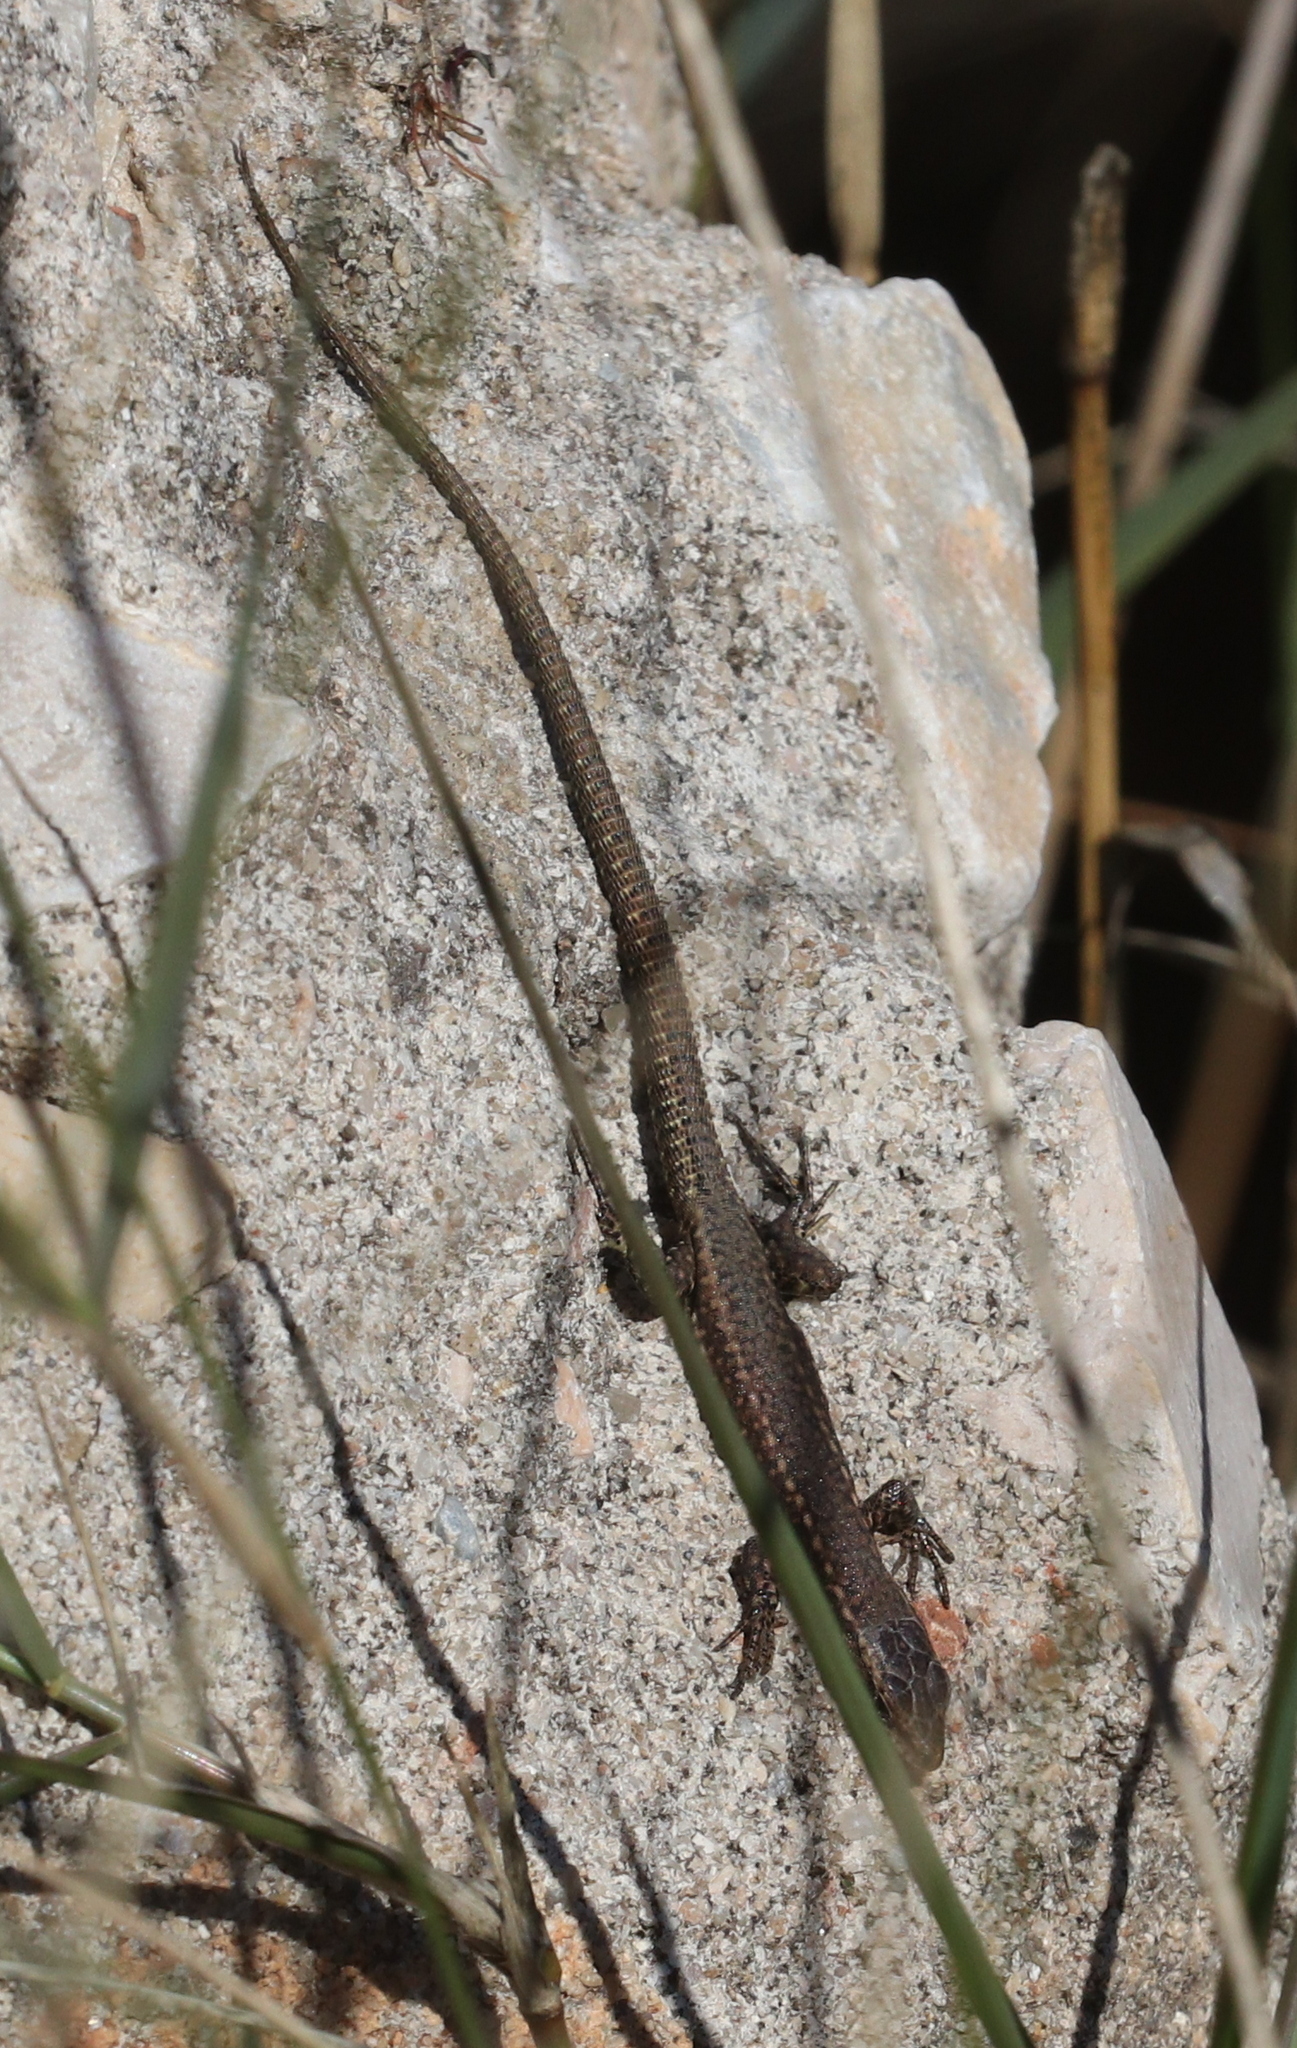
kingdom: Animalia
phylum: Chordata
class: Squamata
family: Lacertidae
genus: Podarcis
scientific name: Podarcis virescens
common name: Geniez’s wall lizard
